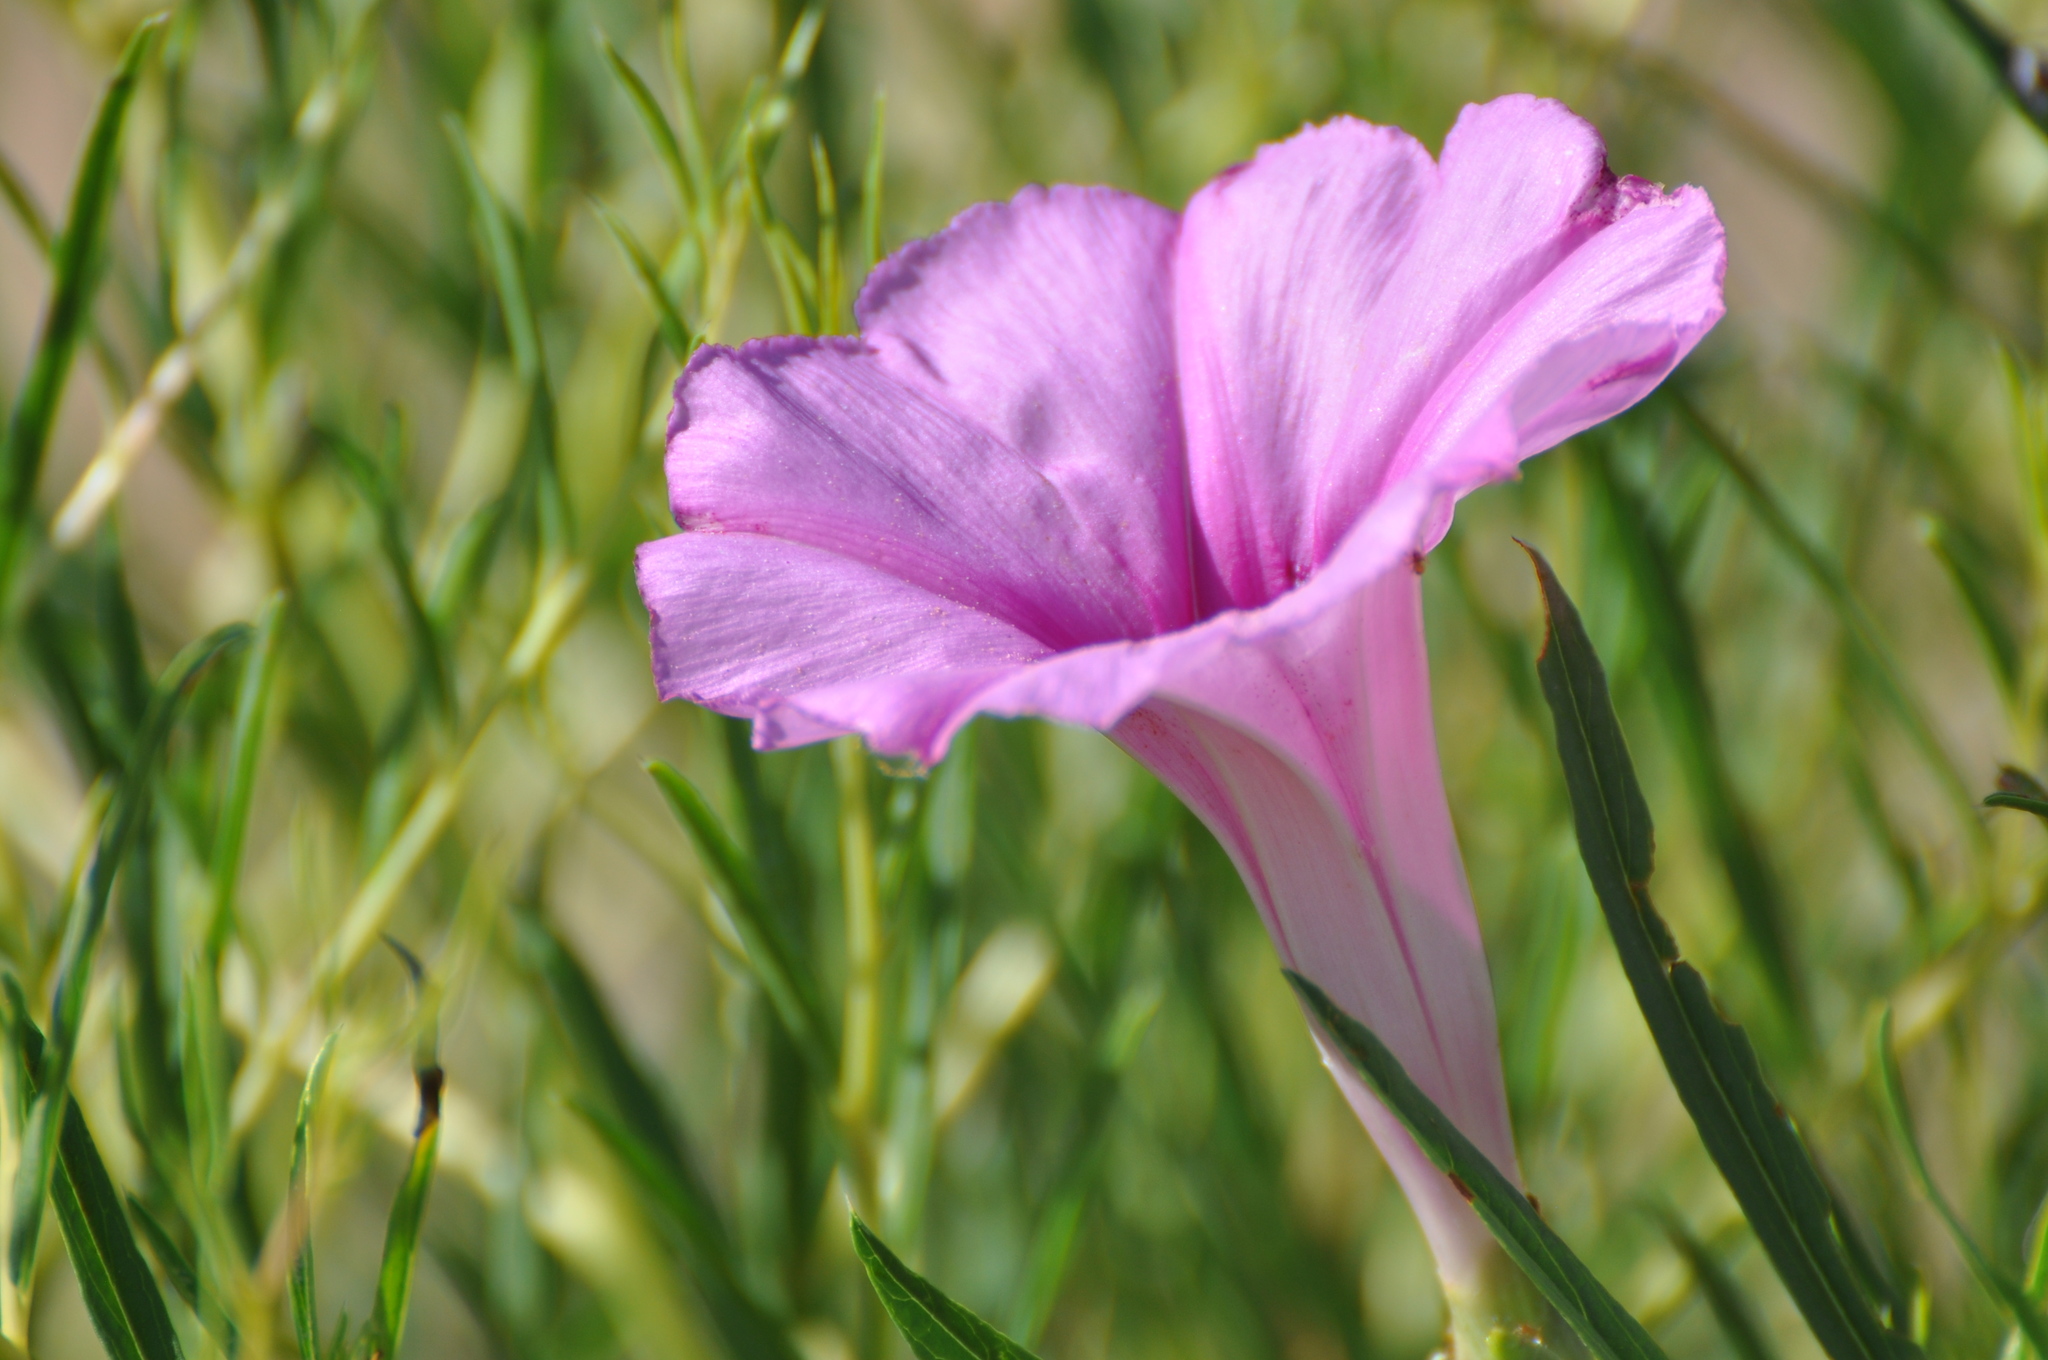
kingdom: Plantae
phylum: Tracheophyta
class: Magnoliopsida
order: Solanales
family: Convolvulaceae
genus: Ipomoea
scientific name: Ipomoea leptophylla
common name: Bush moonflower
